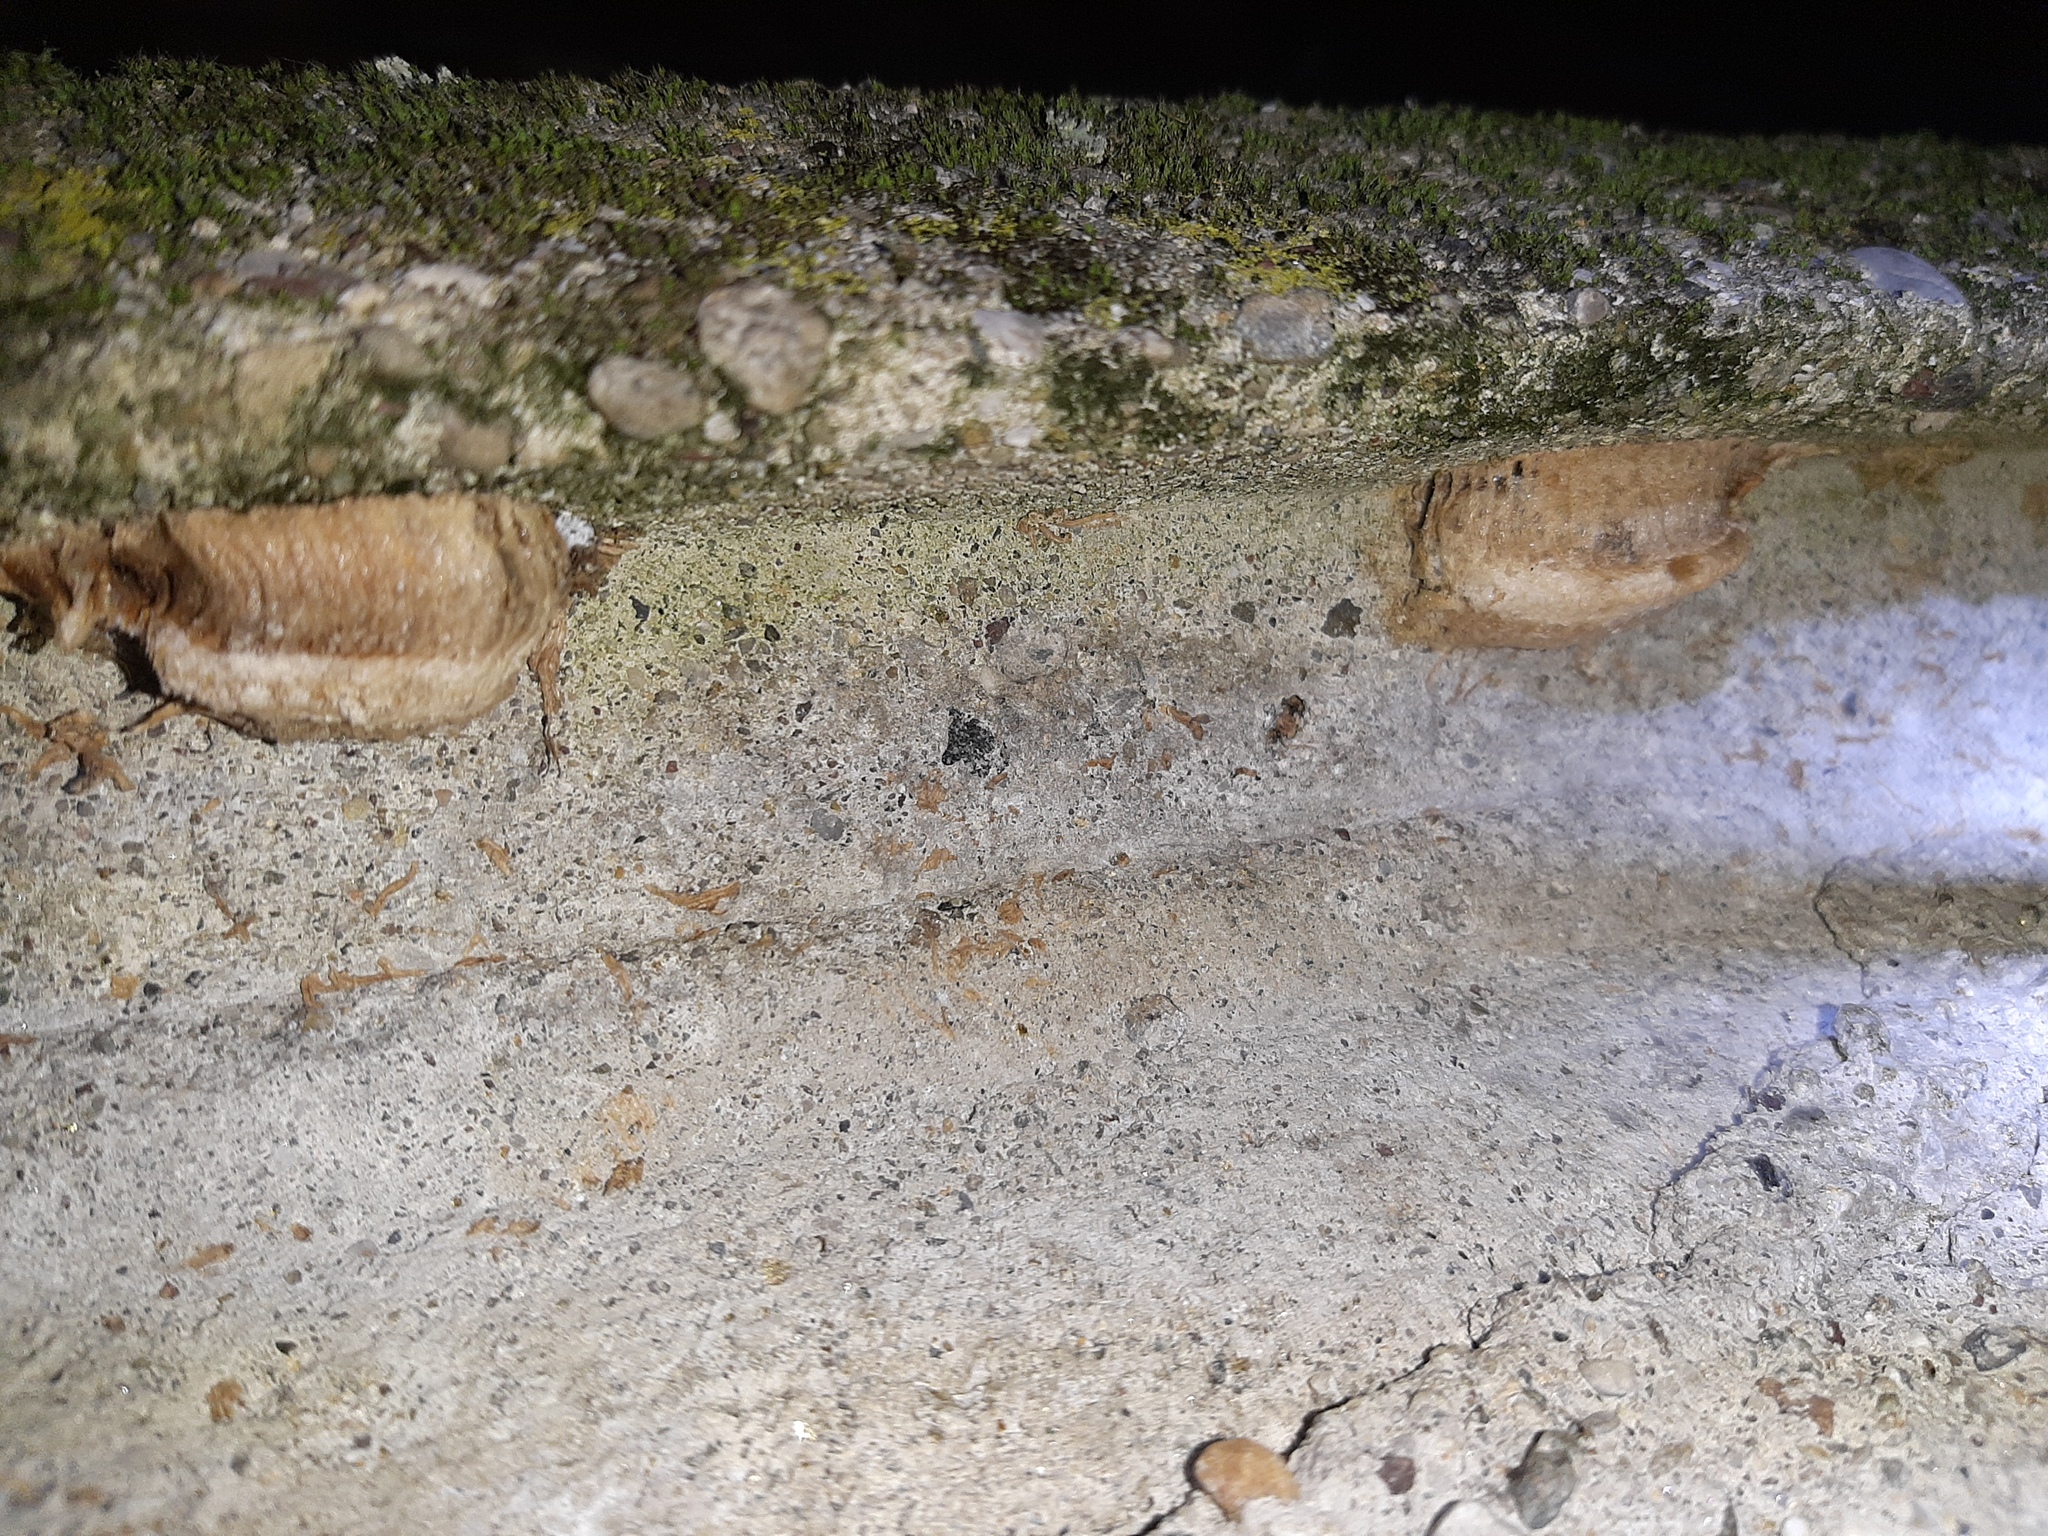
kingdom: Animalia
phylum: Arthropoda
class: Insecta
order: Mantodea
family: Mantidae
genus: Mantis
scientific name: Mantis religiosa
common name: Praying mantis
